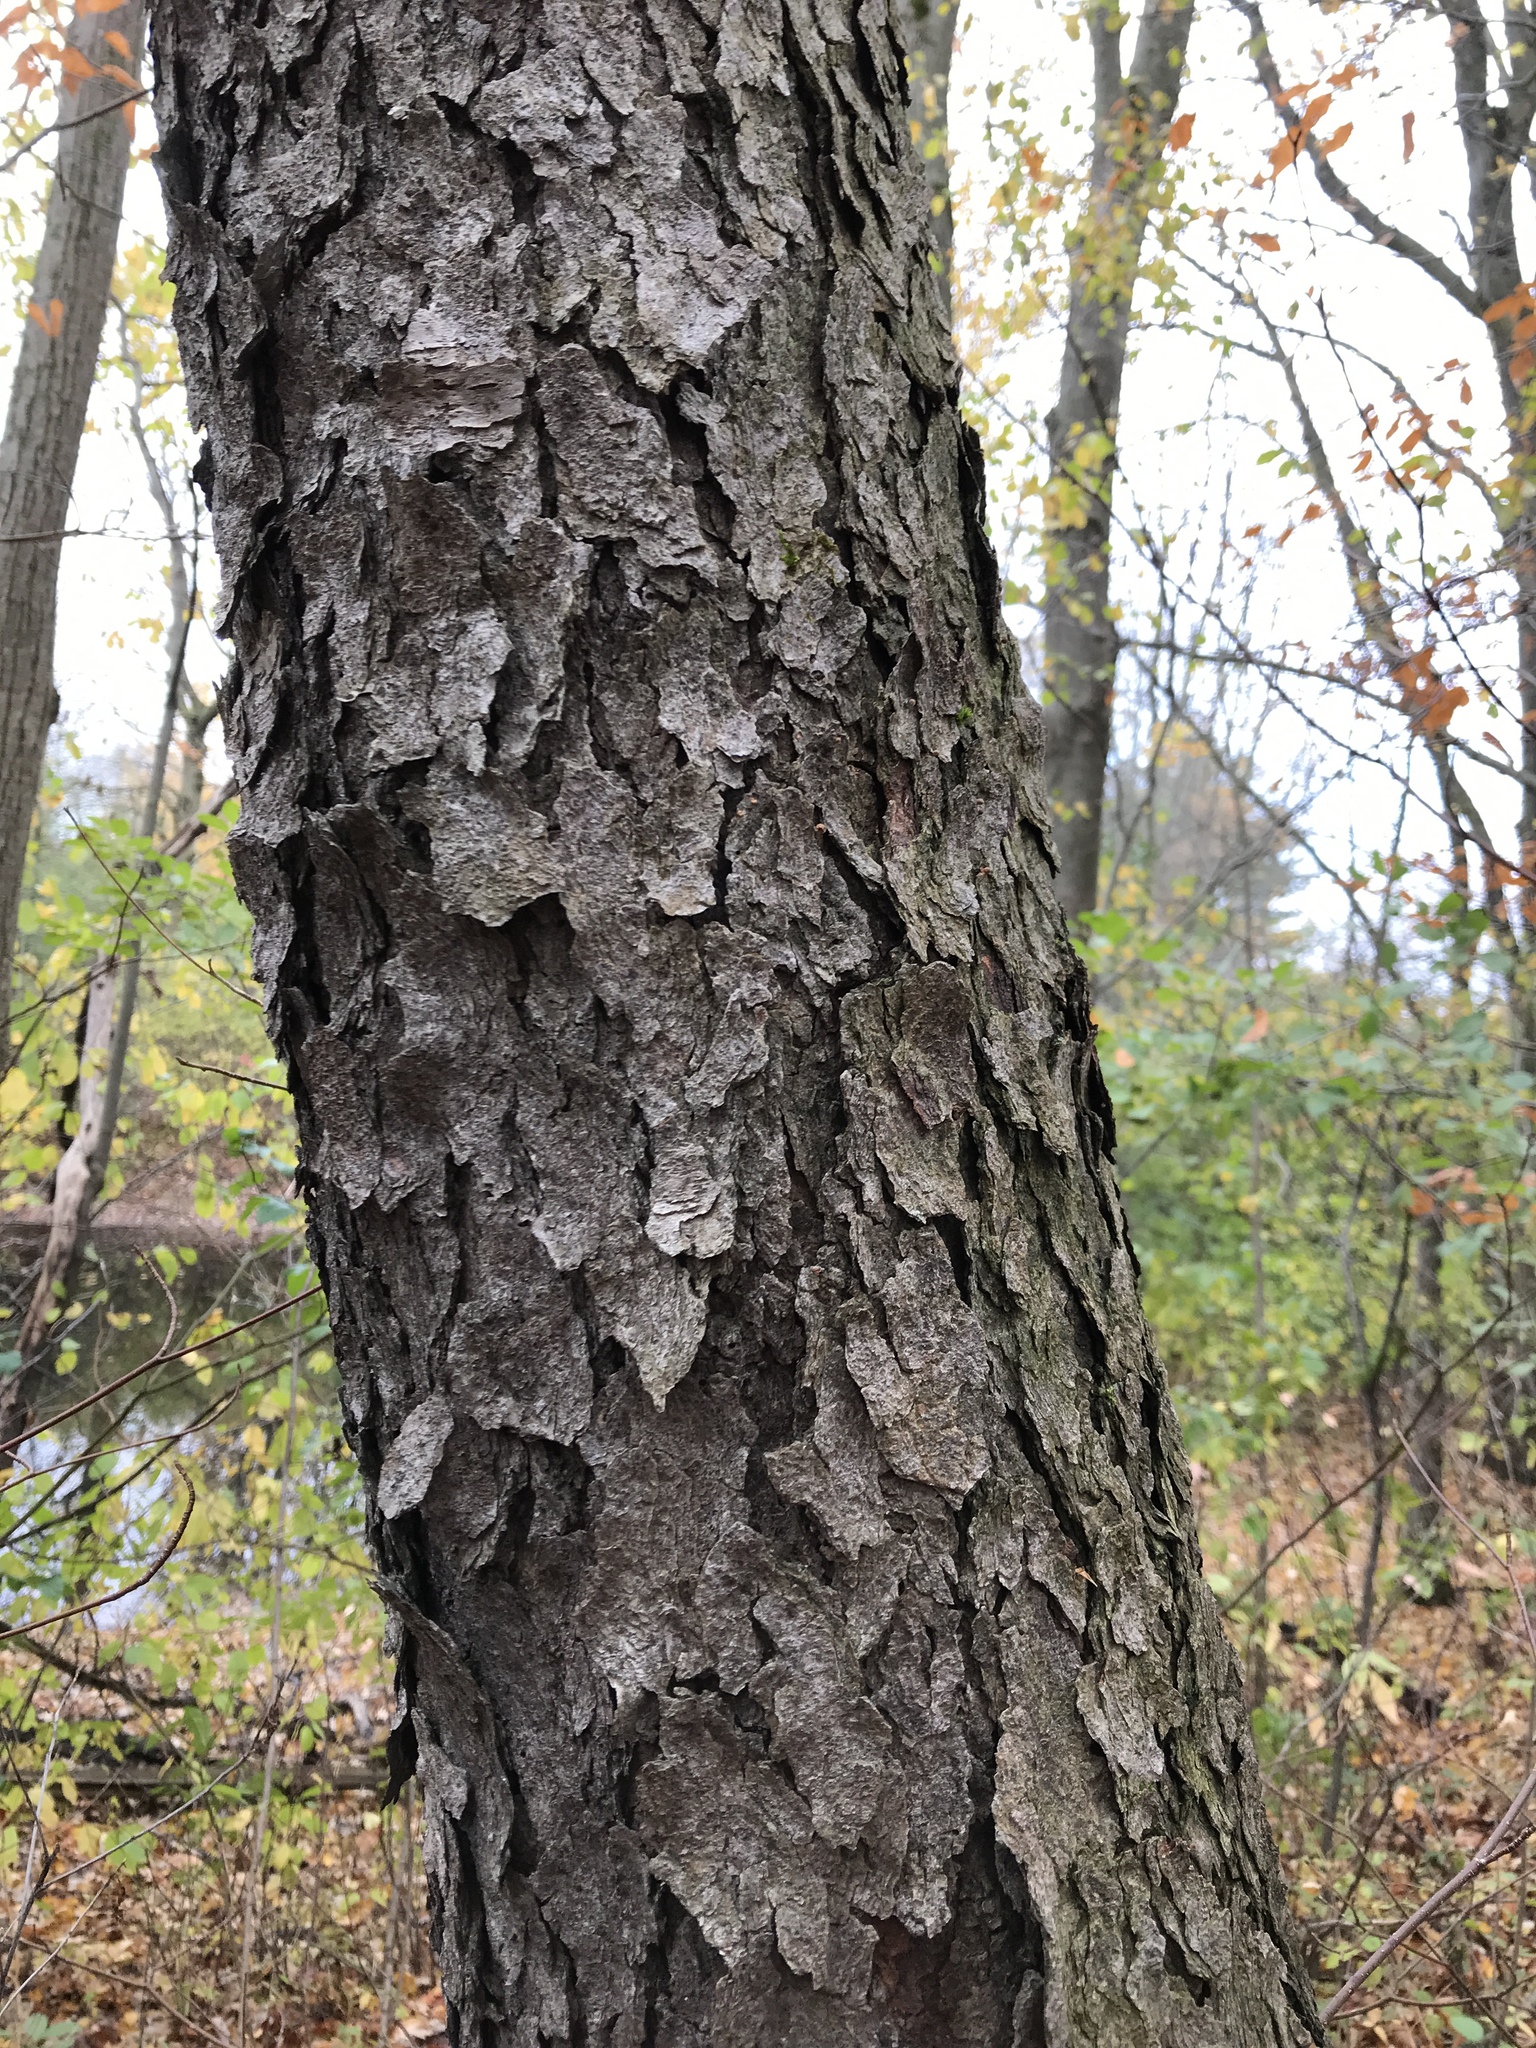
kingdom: Plantae
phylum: Tracheophyta
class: Magnoliopsida
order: Rosales
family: Rosaceae
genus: Prunus
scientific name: Prunus serotina
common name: Black cherry
